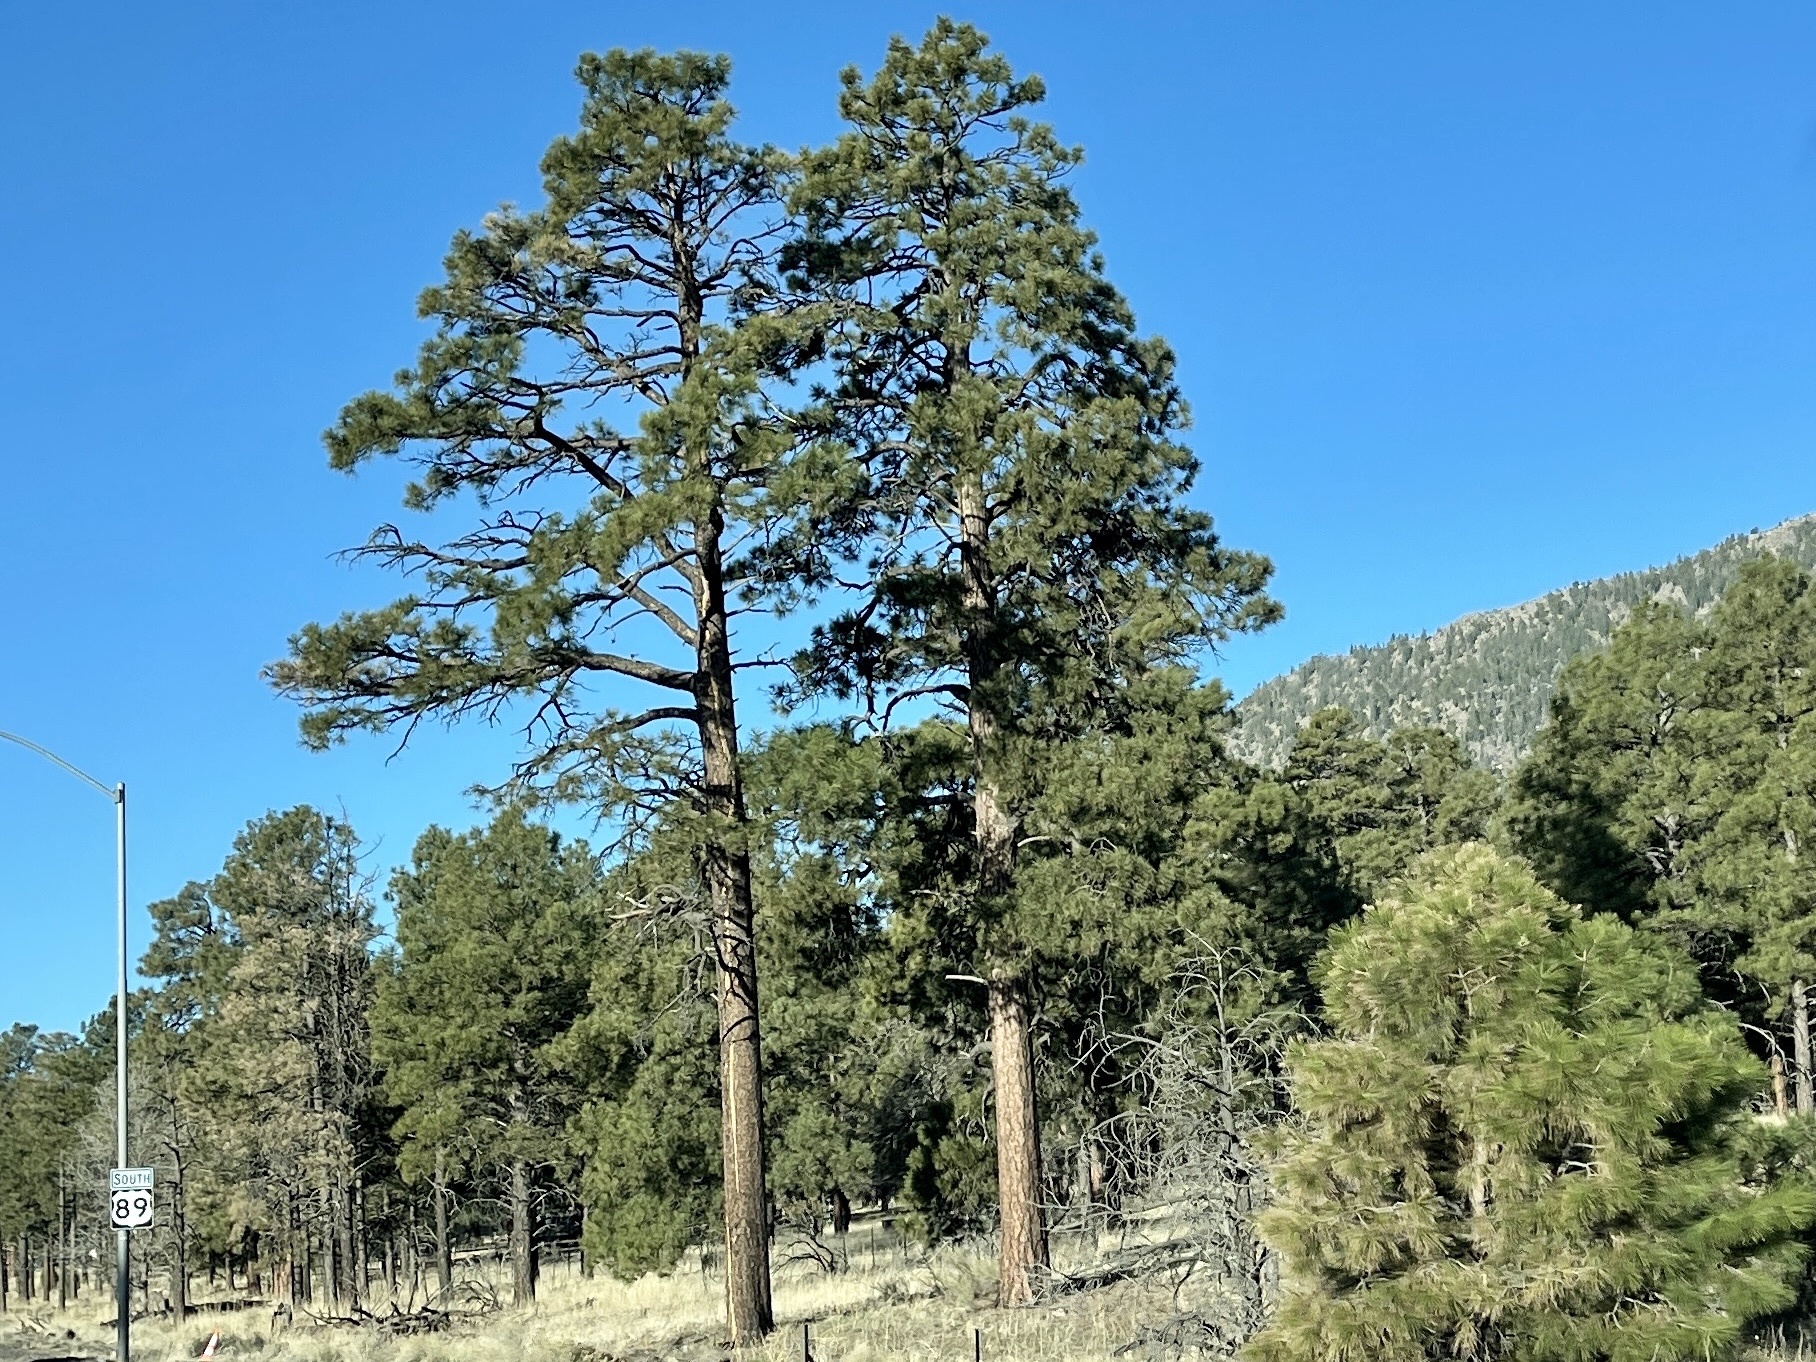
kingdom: Plantae
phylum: Tracheophyta
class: Pinopsida
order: Pinales
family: Pinaceae
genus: Pinus
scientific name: Pinus ponderosa
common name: Western yellow-pine
